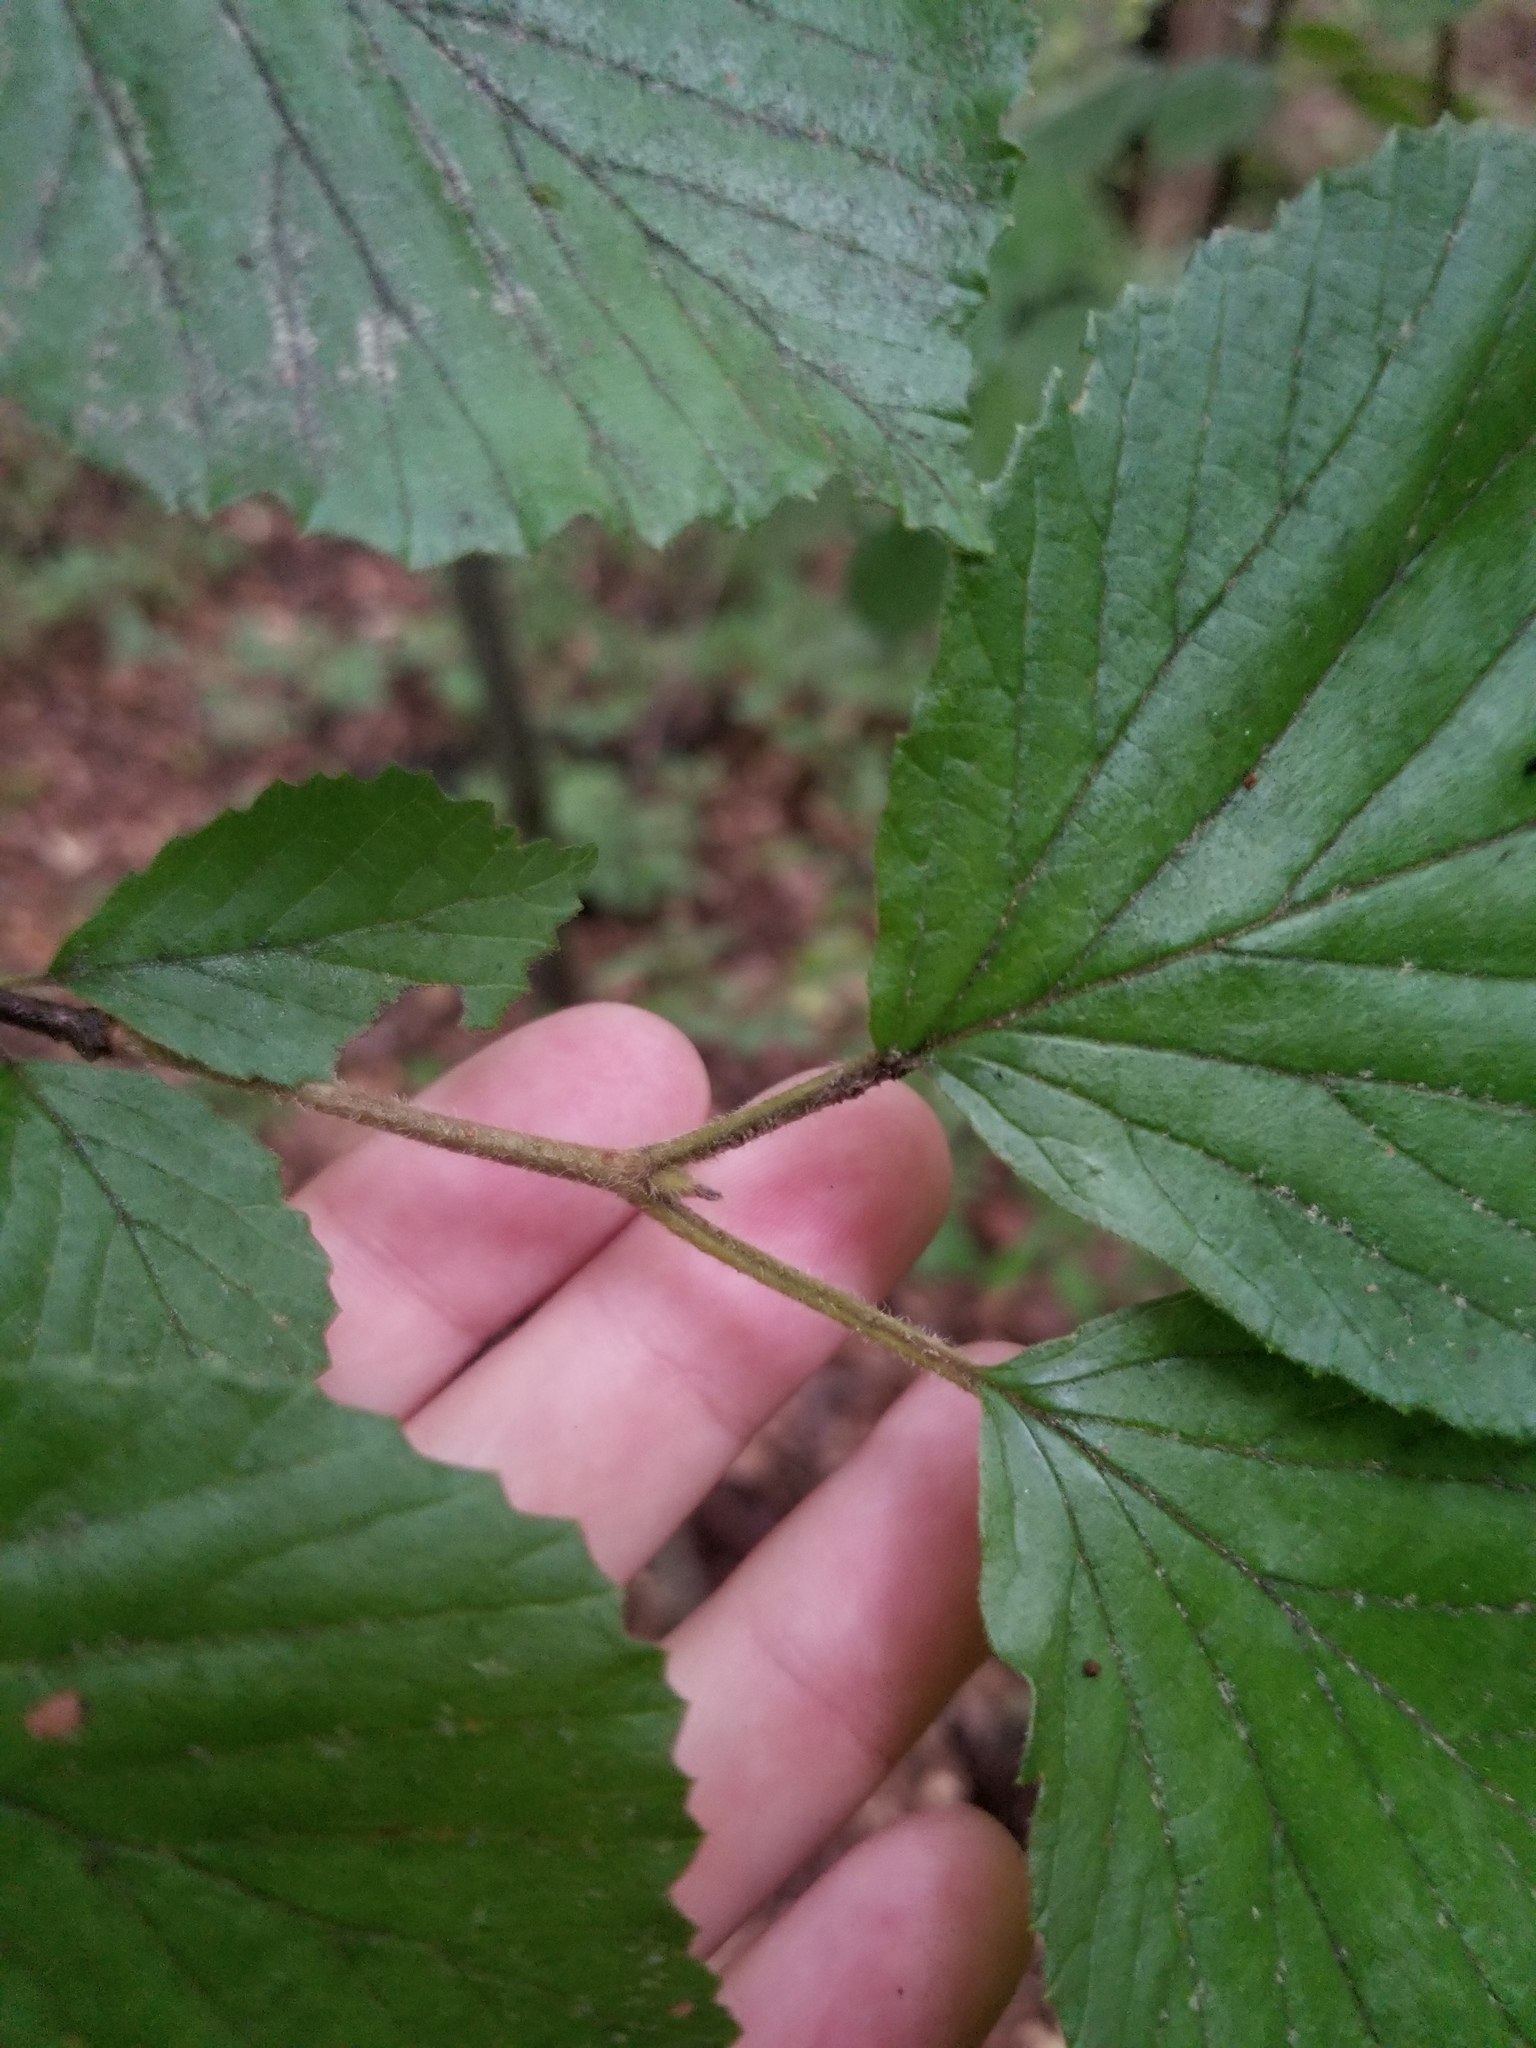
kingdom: Plantae
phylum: Tracheophyta
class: Magnoliopsida
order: Dipsacales
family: Viburnaceae
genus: Viburnum
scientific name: Viburnum dilatatum
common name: Linden arrowwood
